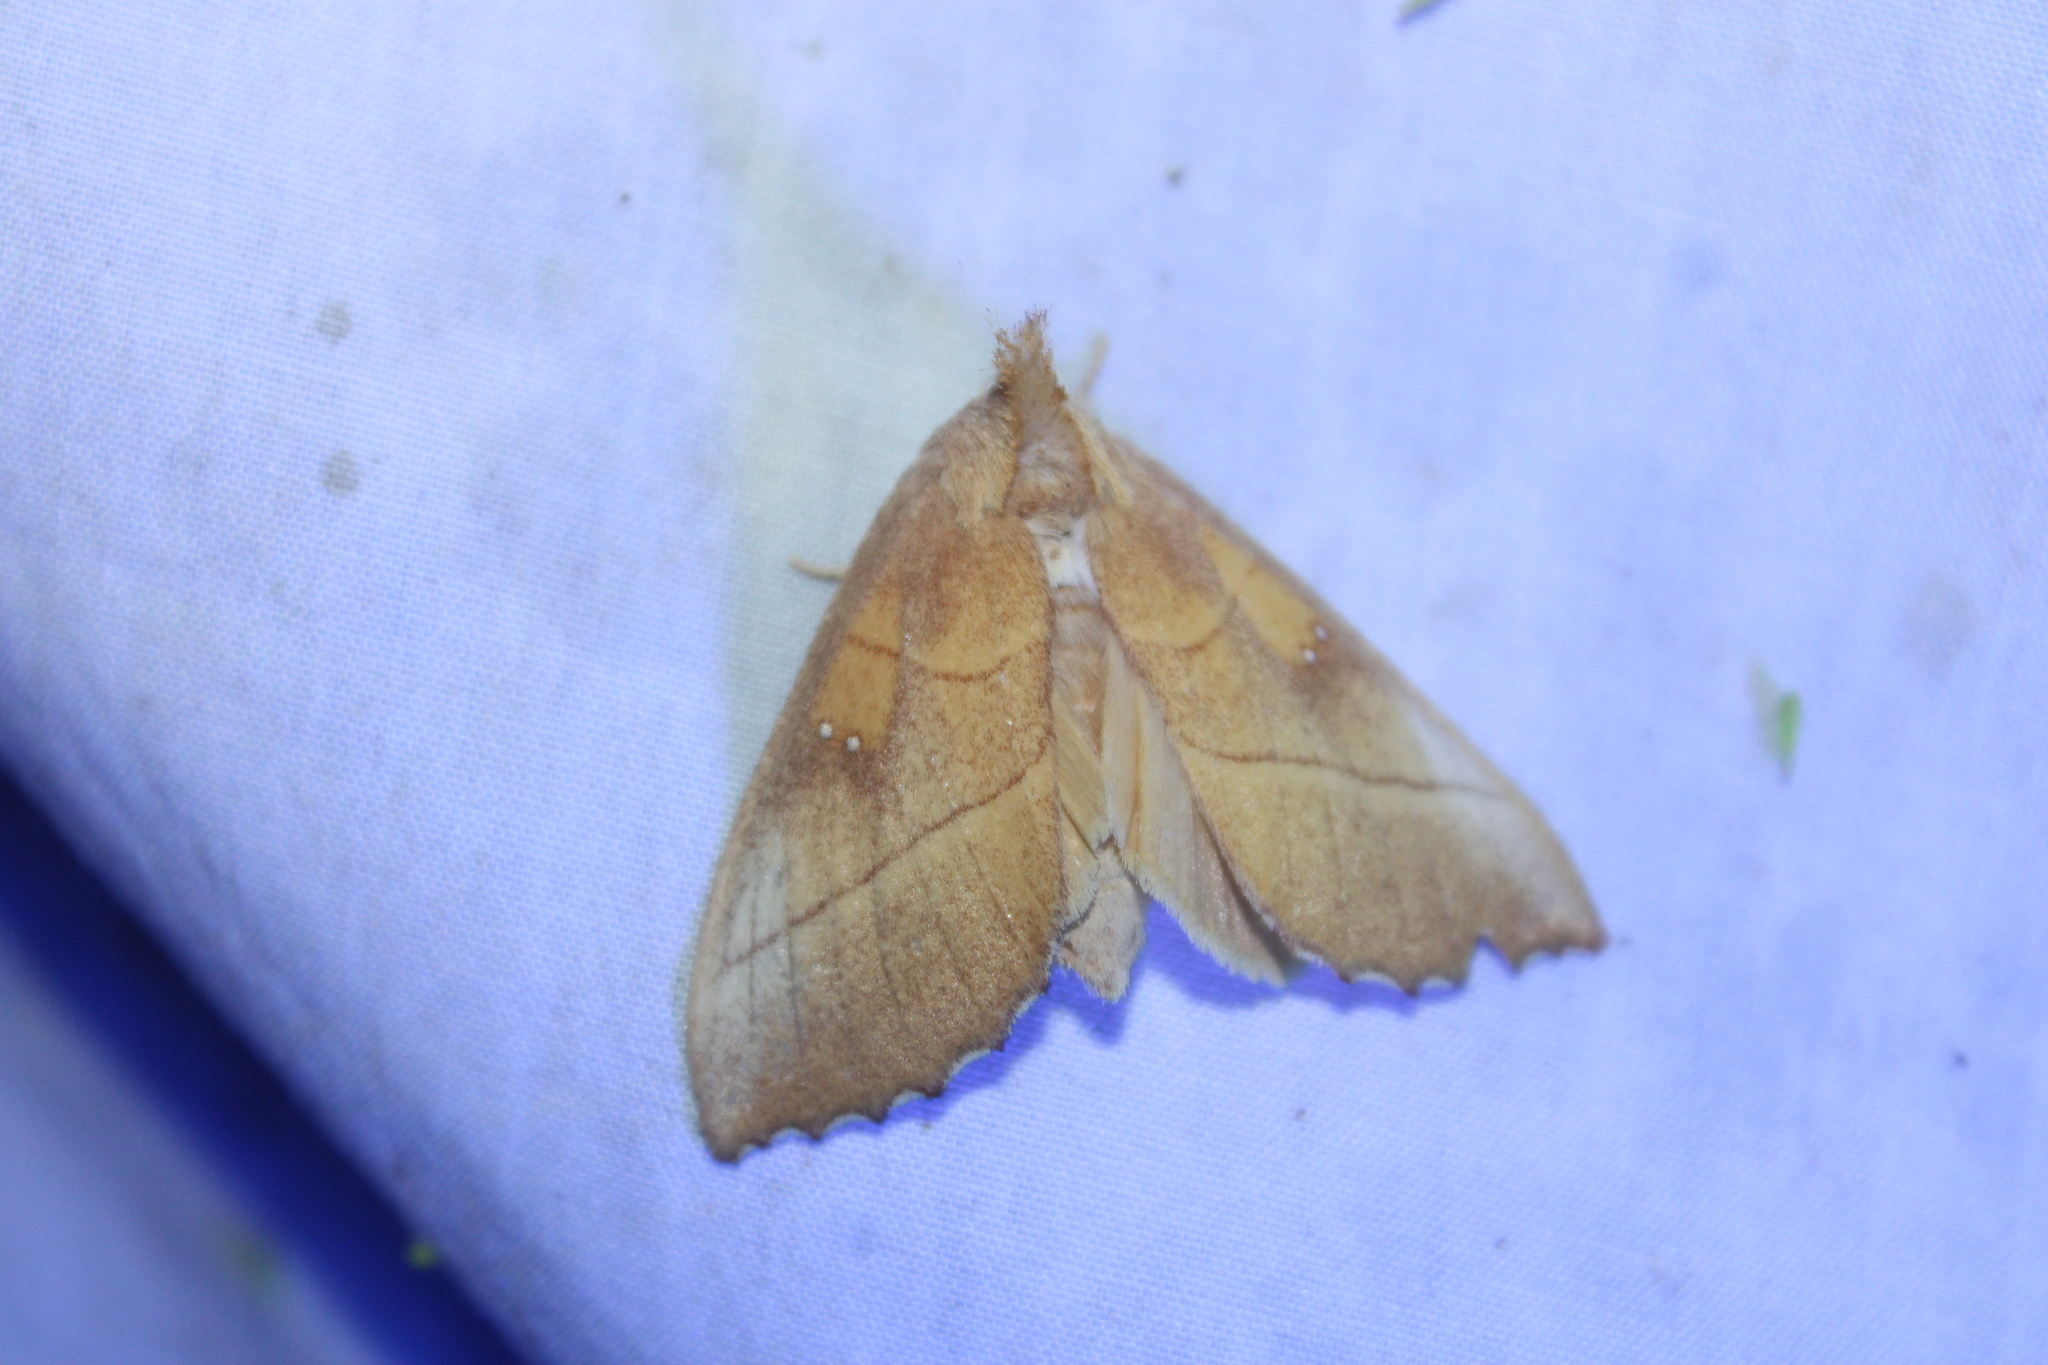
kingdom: Animalia
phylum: Arthropoda
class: Insecta
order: Lepidoptera
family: Notodontidae
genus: Nadata
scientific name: Nadata gibbosa
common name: White-dotted prominent
